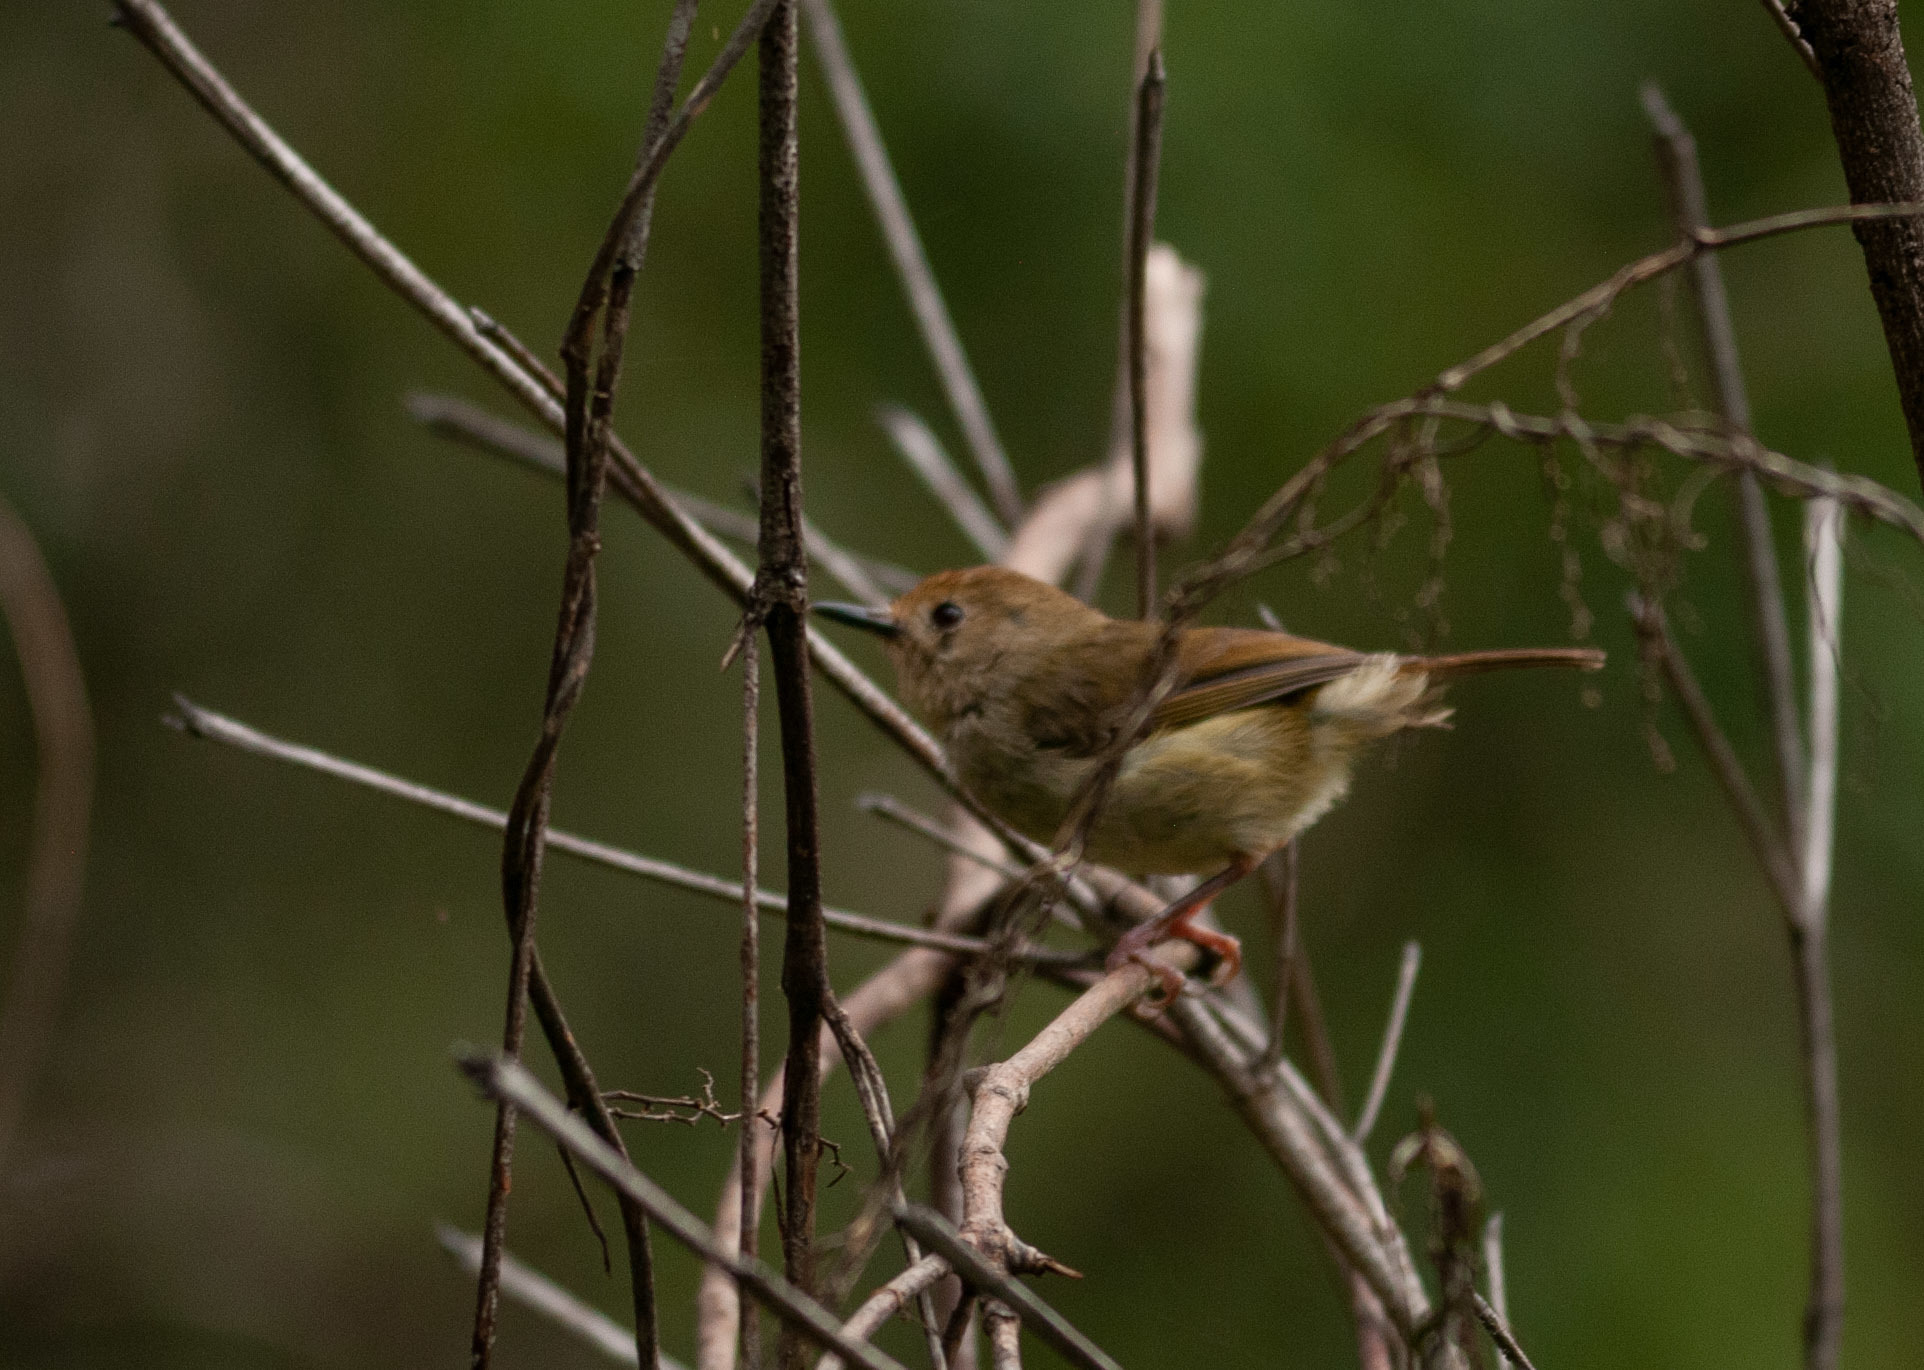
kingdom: Animalia
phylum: Chordata
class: Aves
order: Passeriformes
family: Acanthizidae
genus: Sericornis
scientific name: Sericornis magnirostra
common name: Large-billed scrubwren
